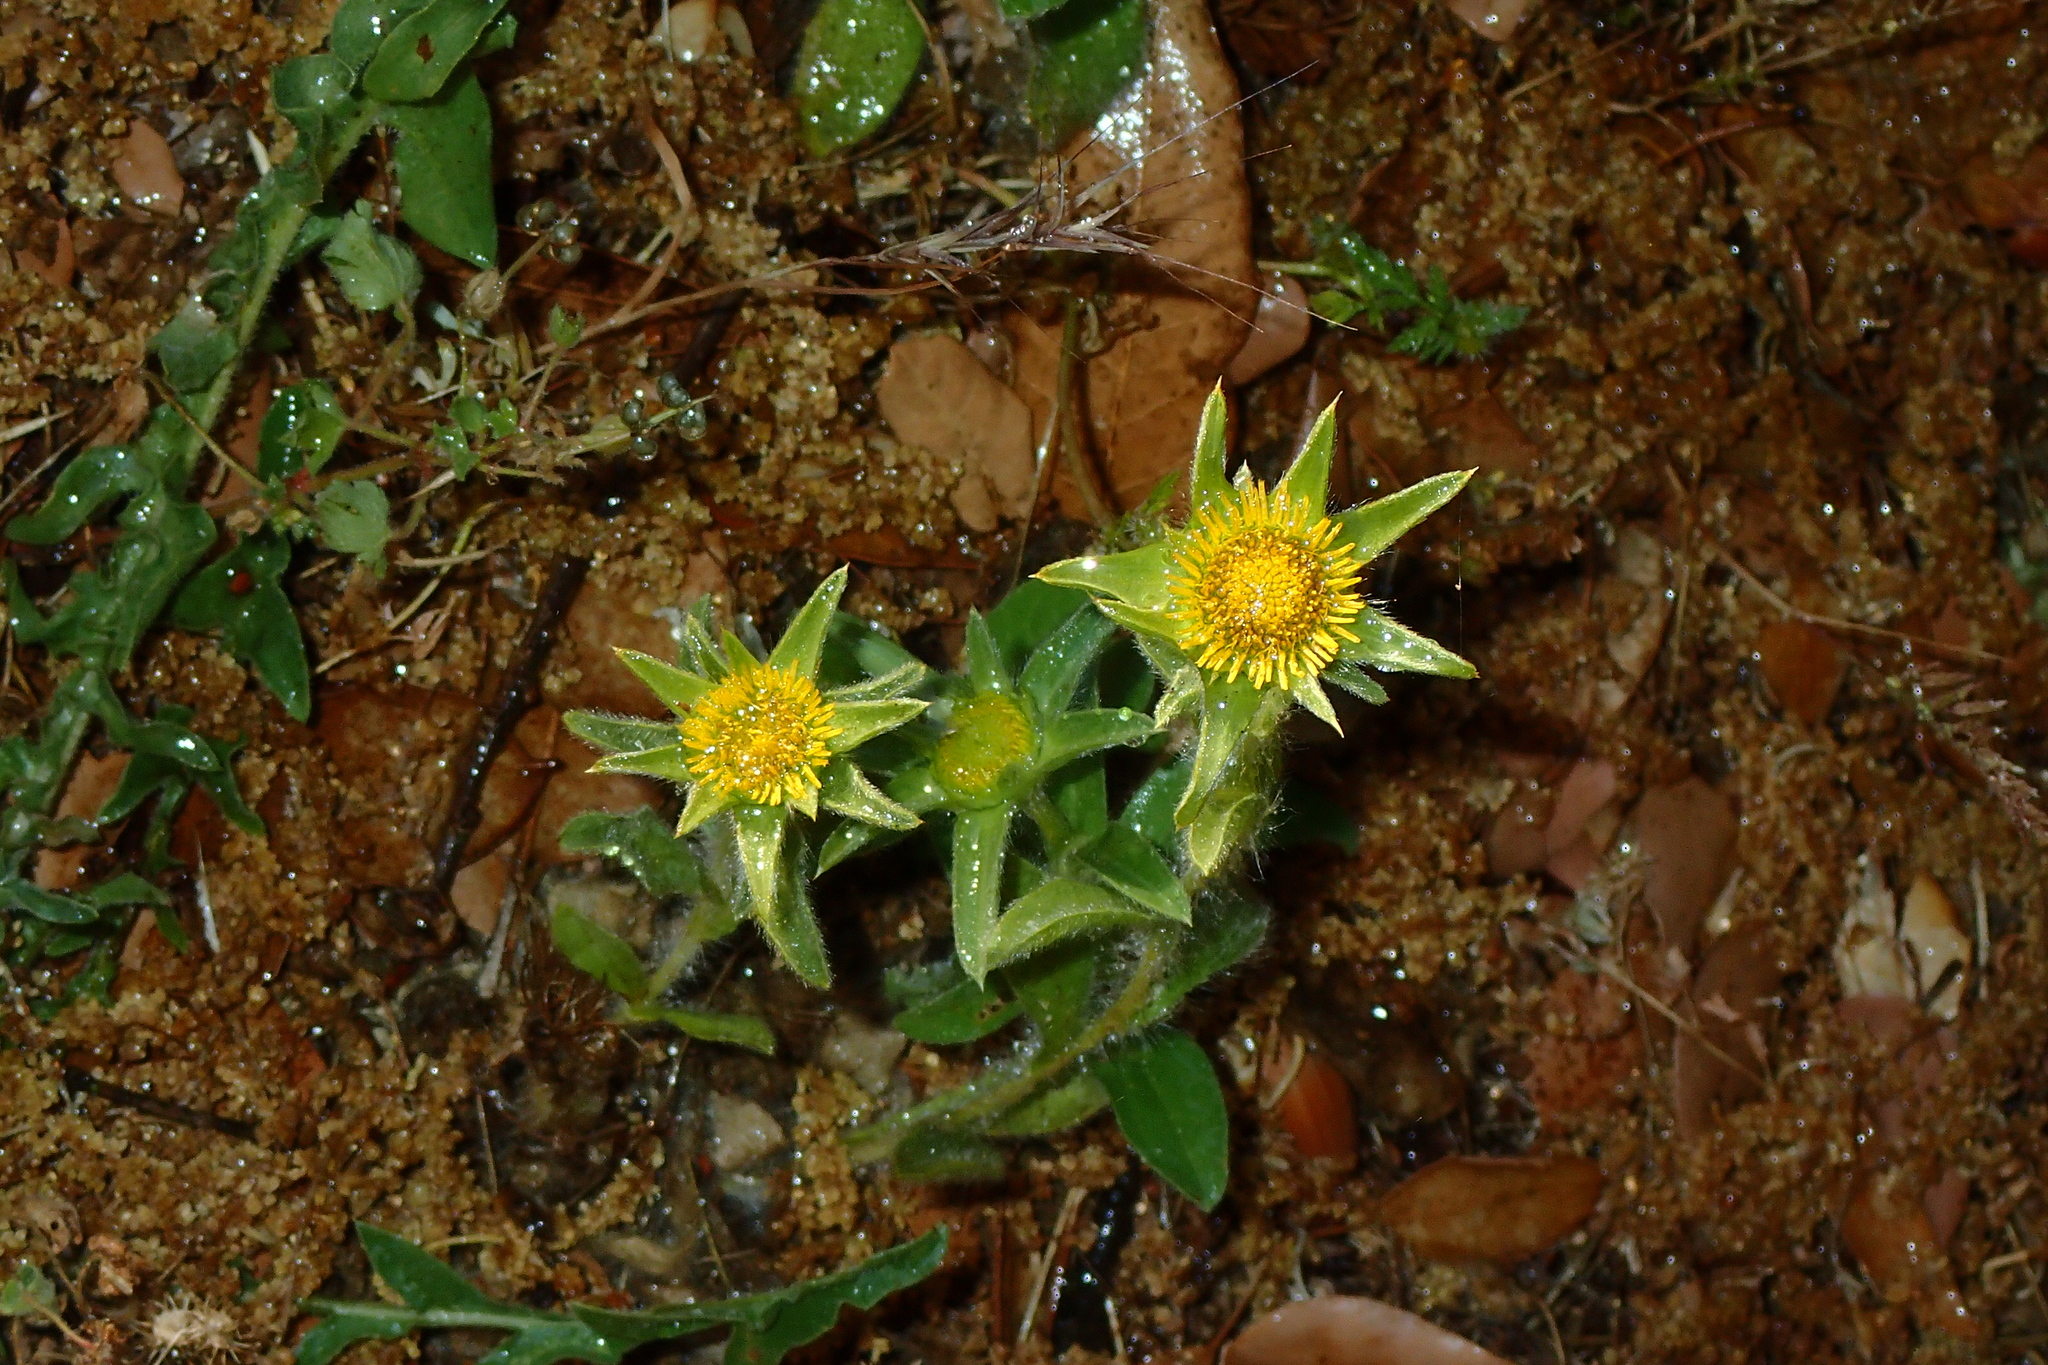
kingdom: Plantae
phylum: Tracheophyta
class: Magnoliopsida
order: Asterales
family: Asteraceae
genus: Pallenis
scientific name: Pallenis spinosa
